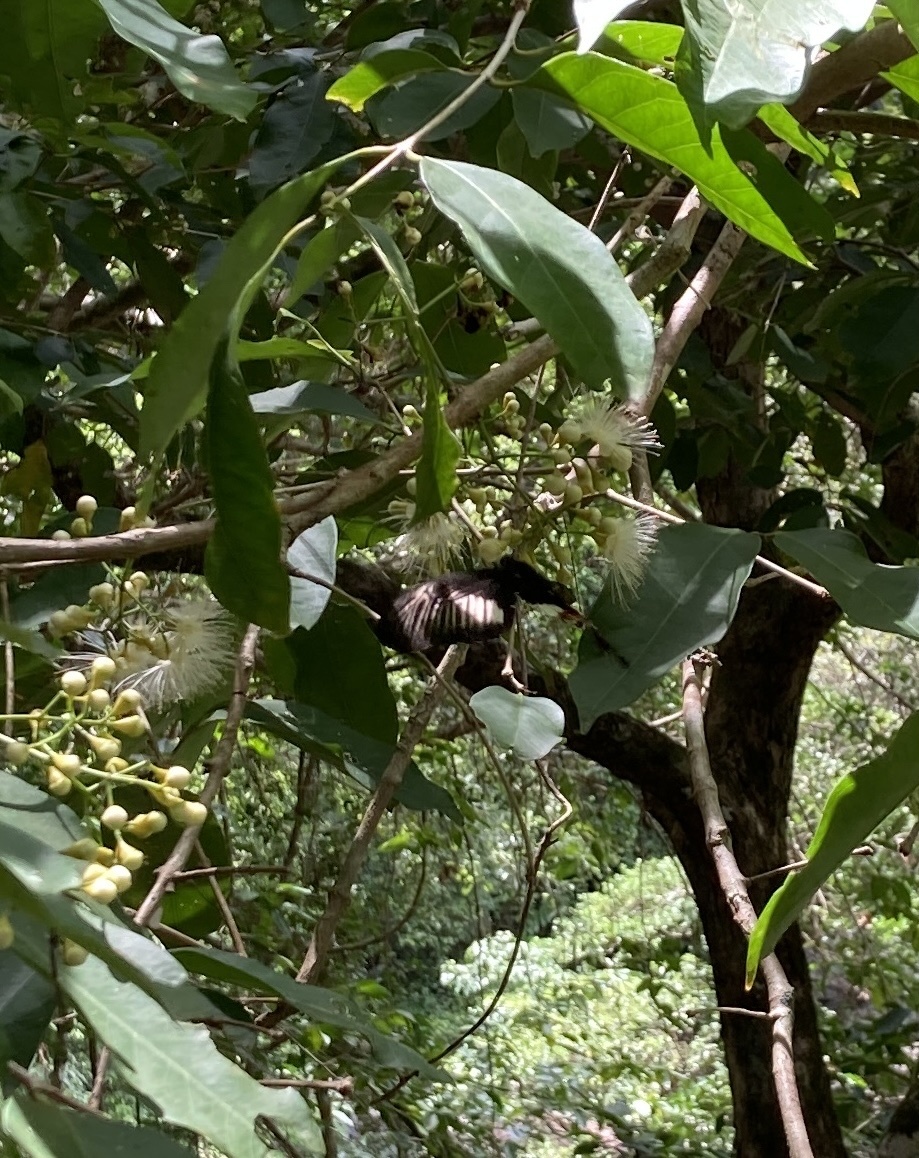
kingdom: Animalia
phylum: Arthropoda
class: Insecta
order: Lepidoptera
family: Papilionidae
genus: Papilio
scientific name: Papilio aegeus
